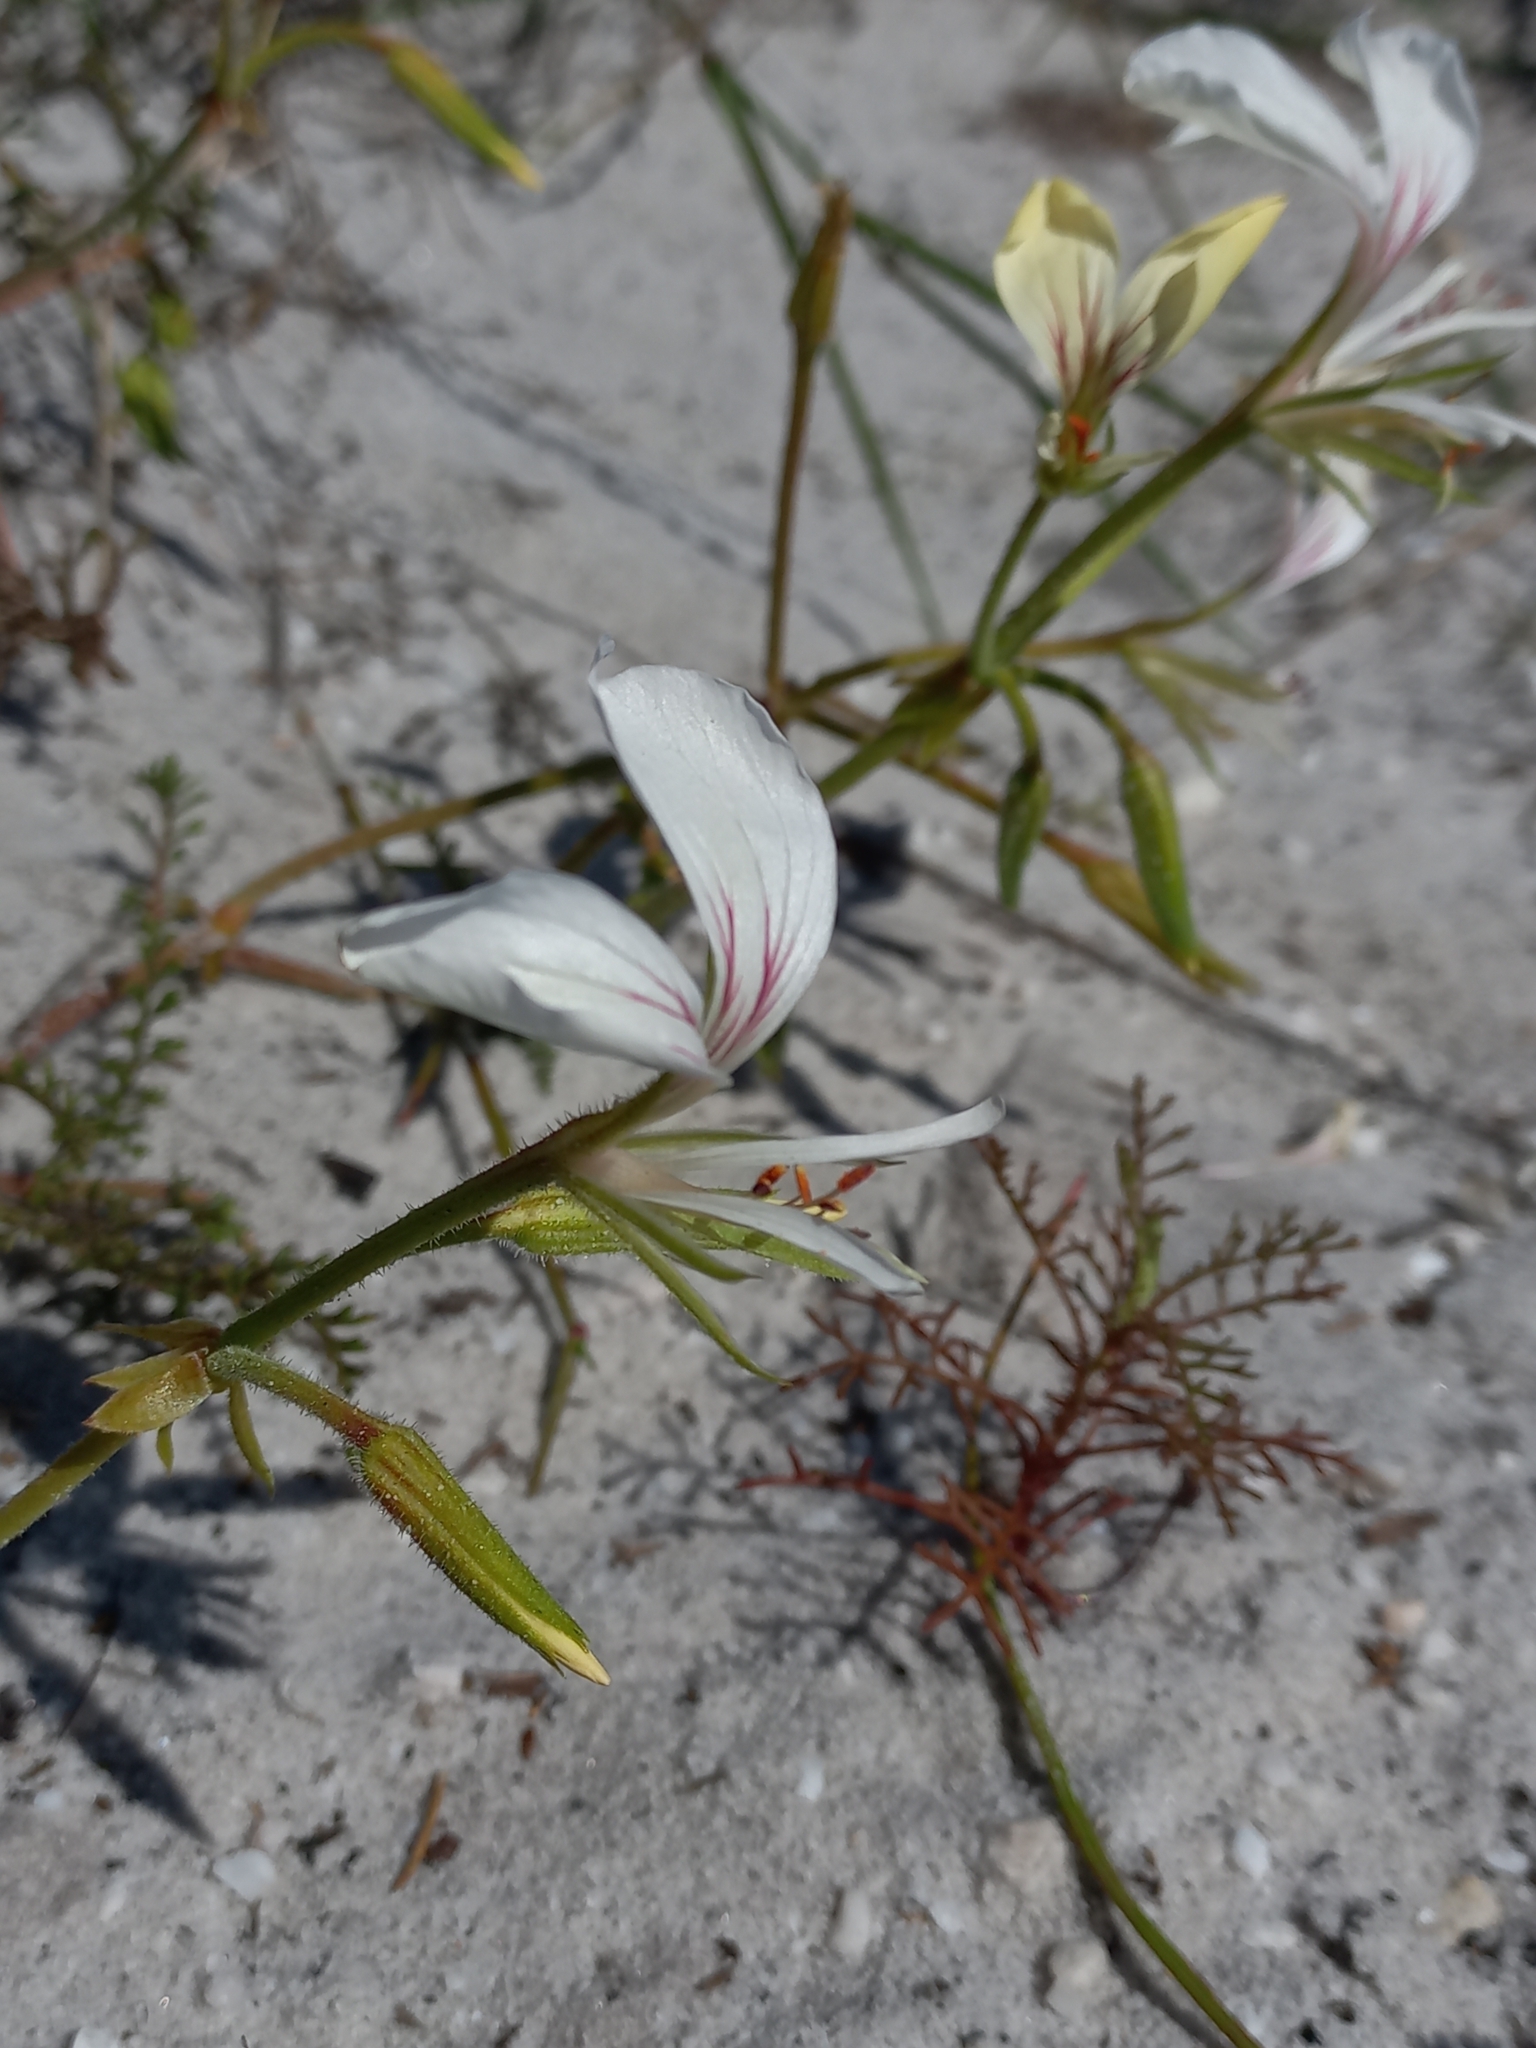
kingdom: Plantae
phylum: Tracheophyta
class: Magnoliopsida
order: Geraniales
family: Geraniaceae
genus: Pelargonium
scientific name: Pelargonium longicaule
